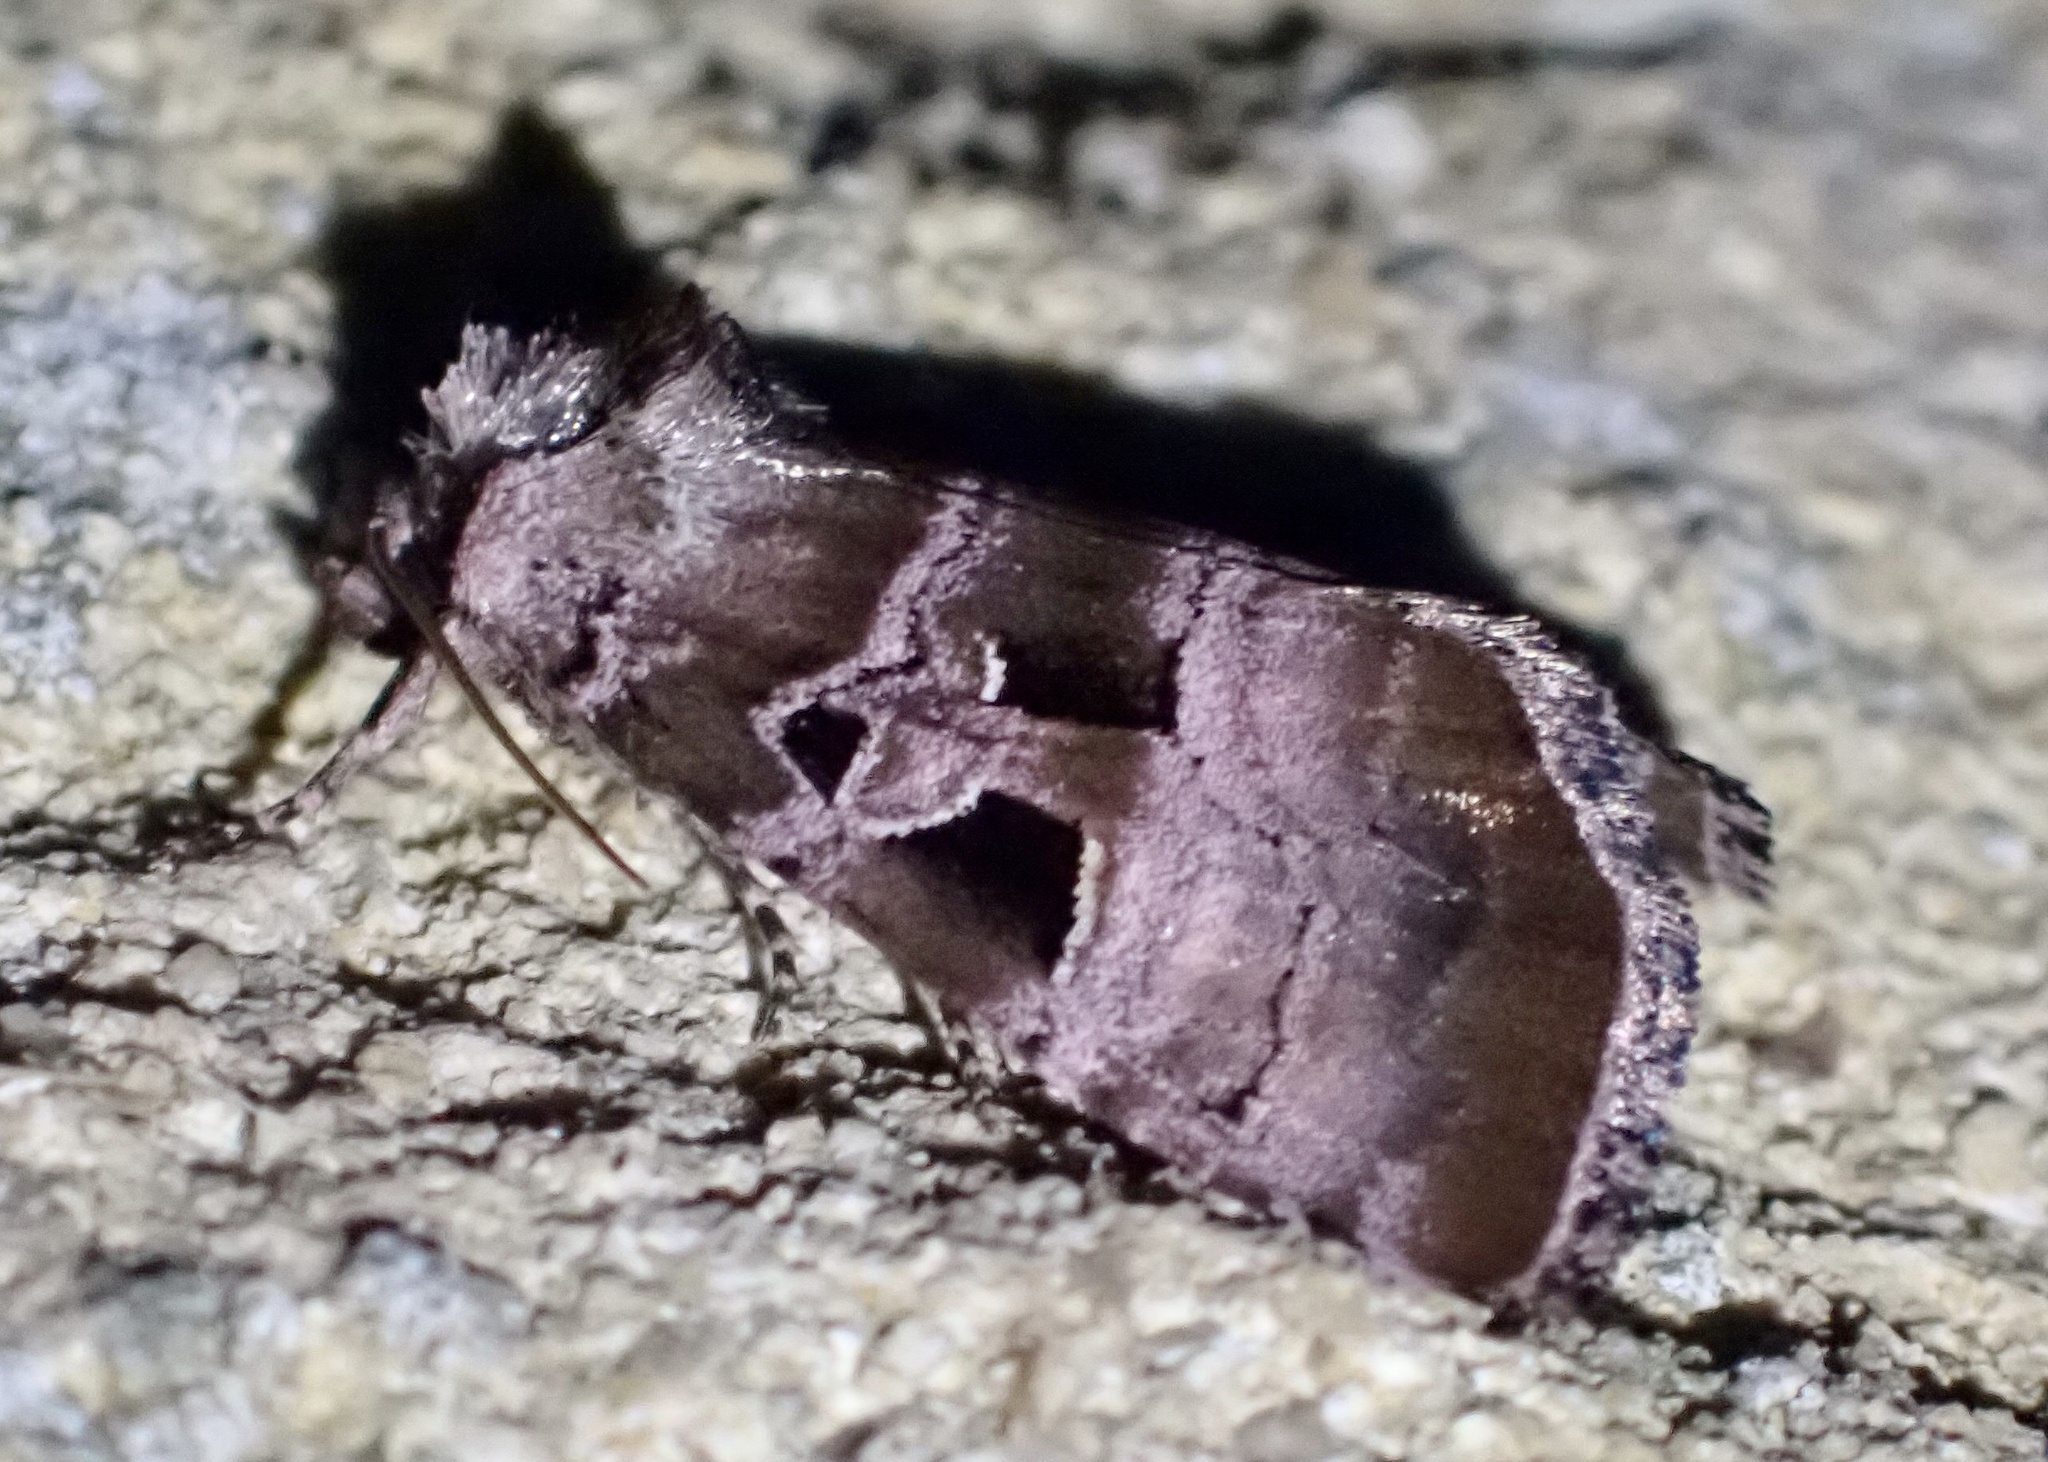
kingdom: Animalia
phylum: Arthropoda
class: Insecta
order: Lepidoptera
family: Noctuidae
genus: Eucarta
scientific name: Eucarta amethystina
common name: Cumberland green
